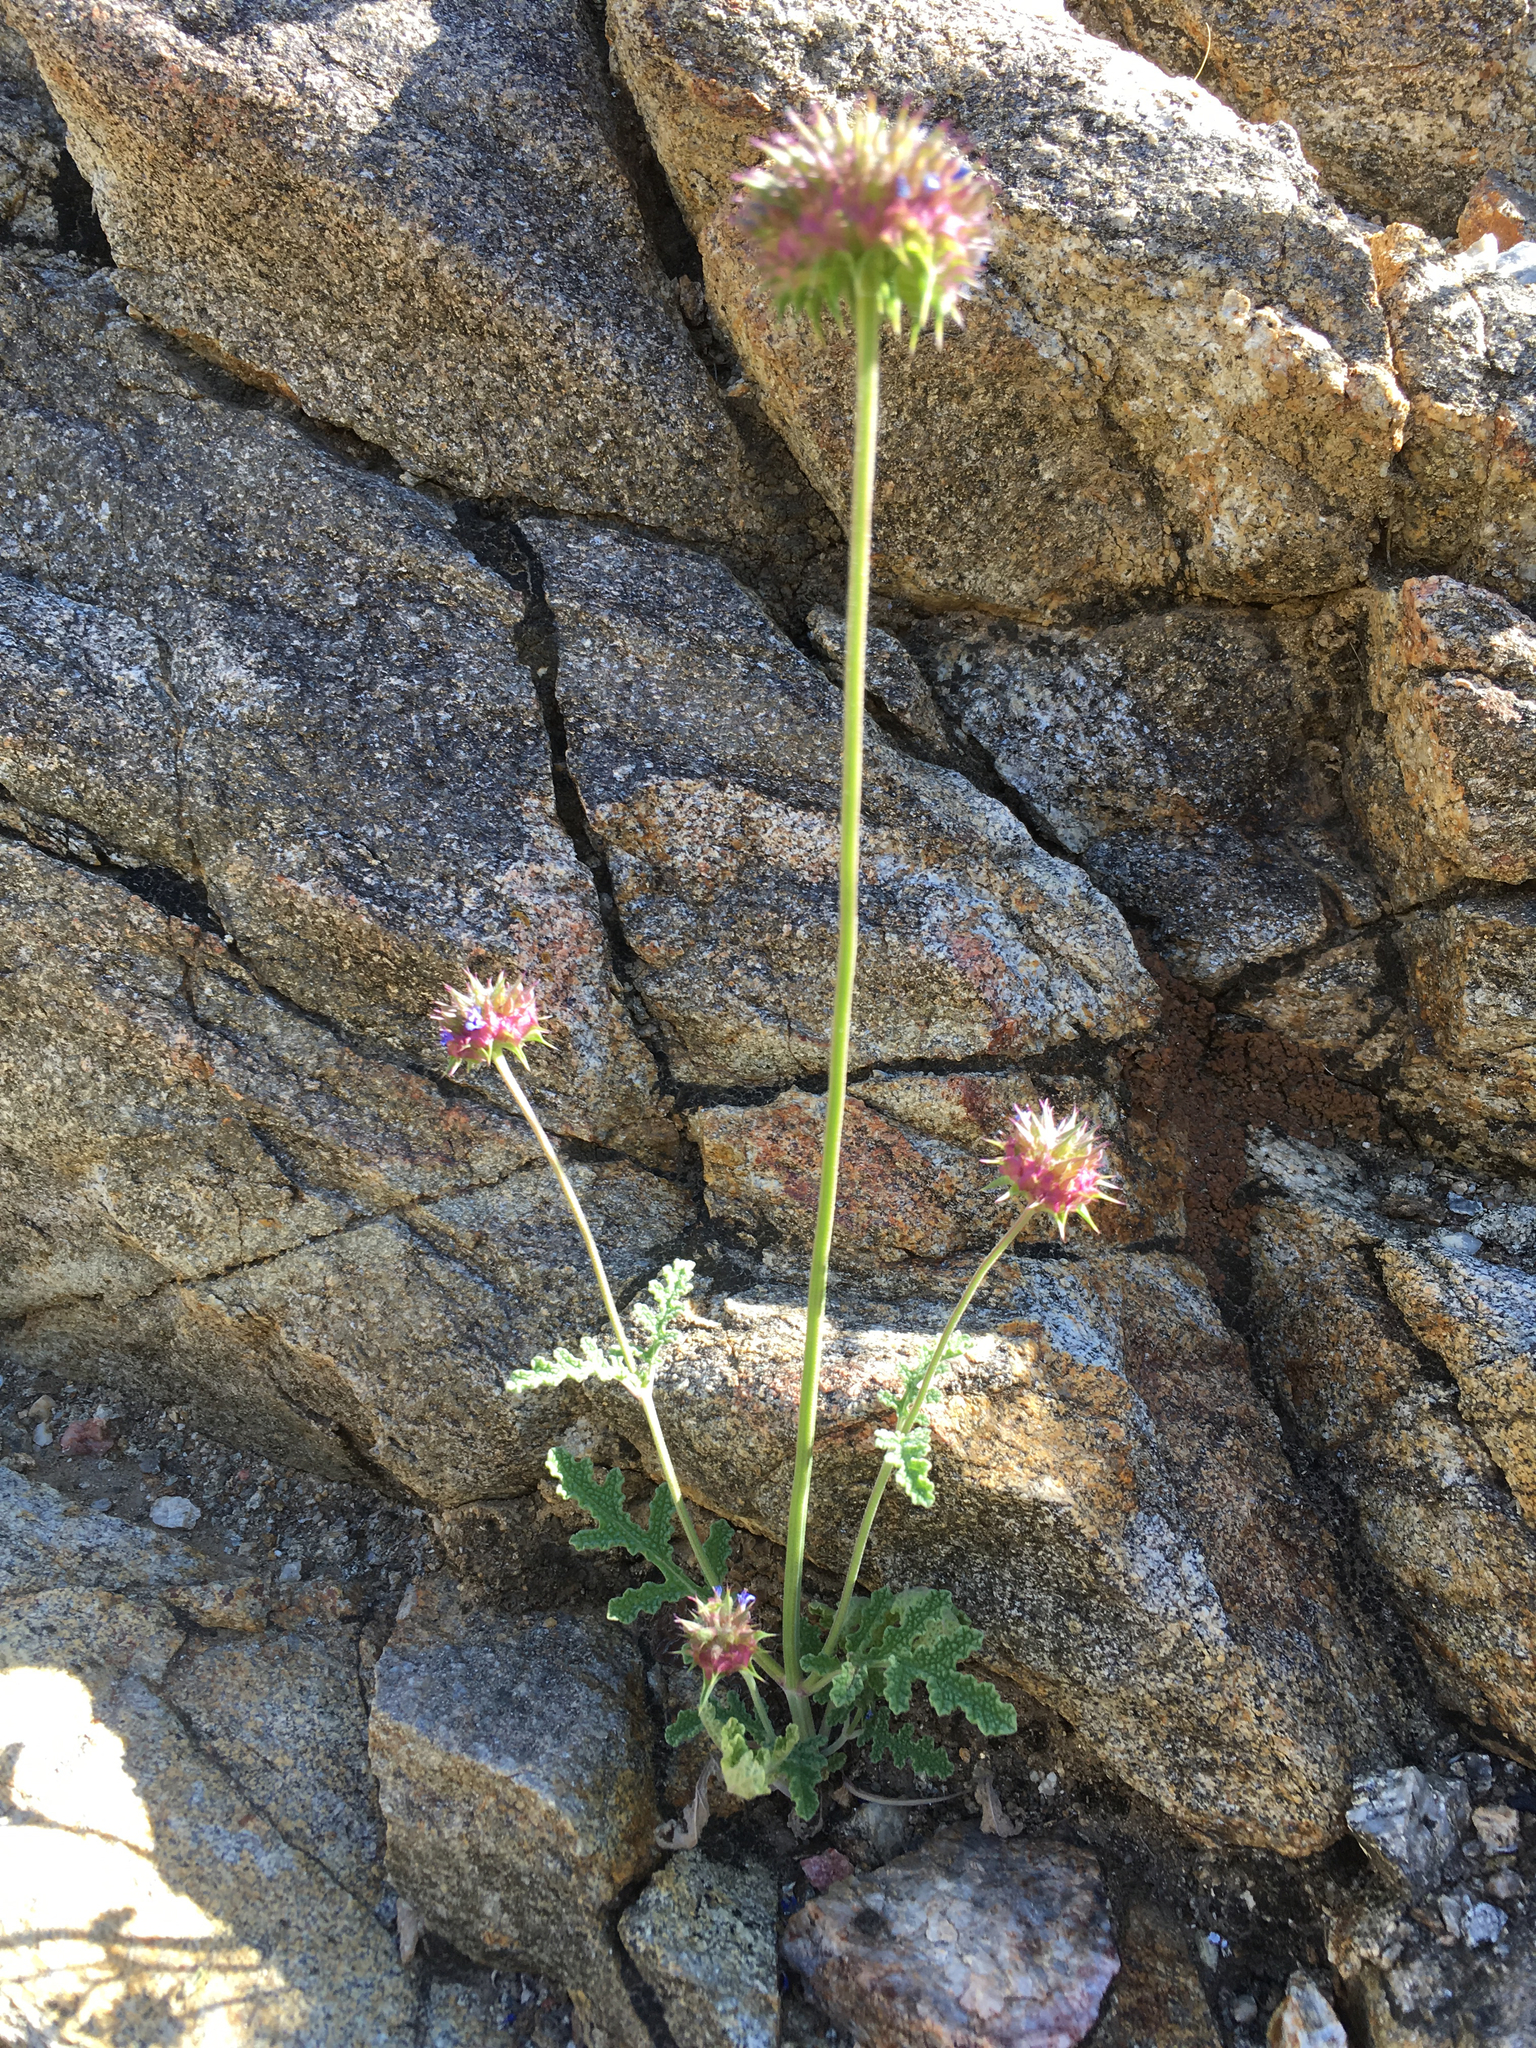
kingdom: Plantae
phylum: Tracheophyta
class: Magnoliopsida
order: Lamiales
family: Lamiaceae
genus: Salvia
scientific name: Salvia columbariae
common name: Chia
